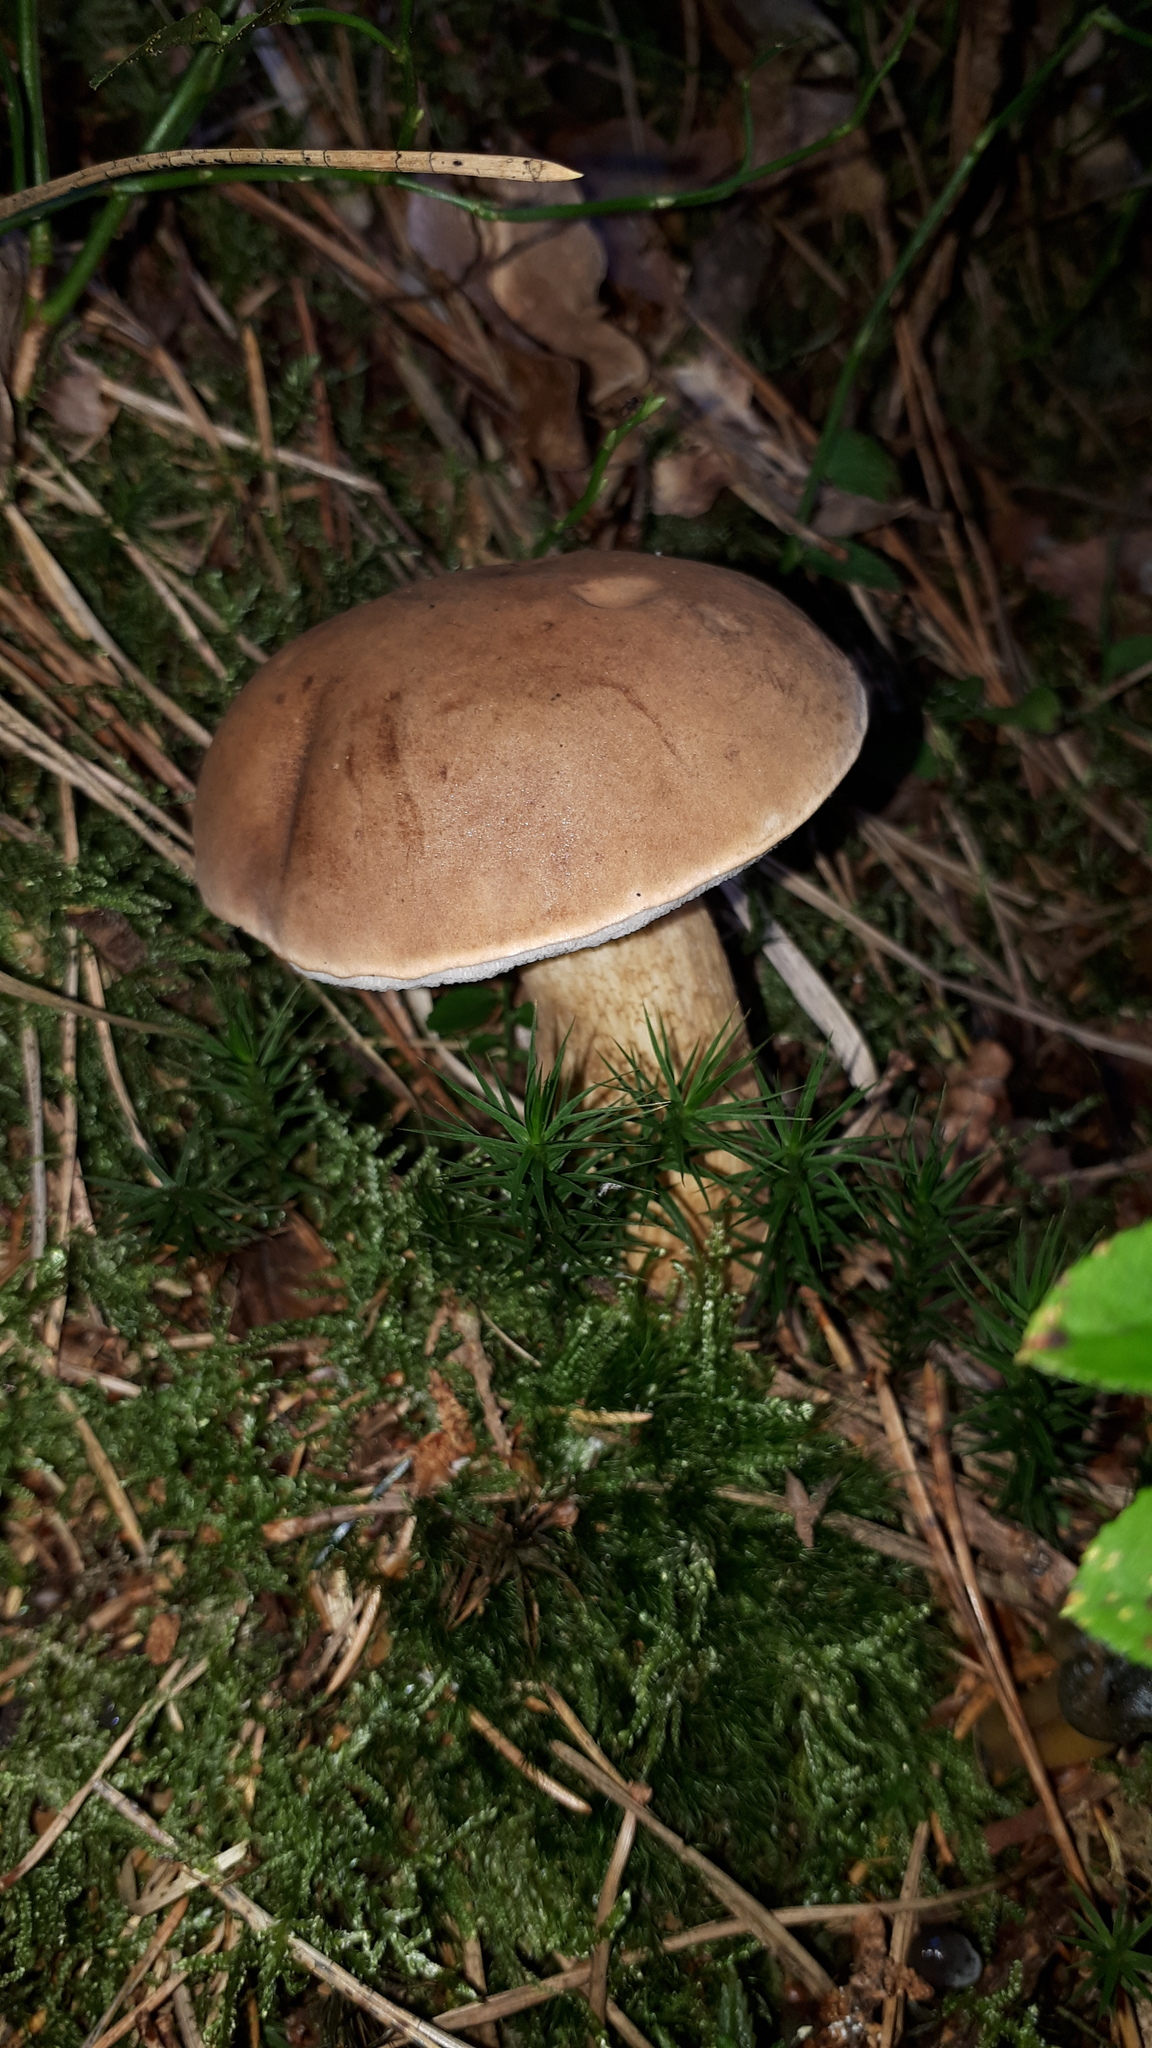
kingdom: Fungi
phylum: Basidiomycota
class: Agaricomycetes
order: Boletales
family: Boletaceae
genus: Tylopilus
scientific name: Tylopilus felleus
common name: Bitter bolete
